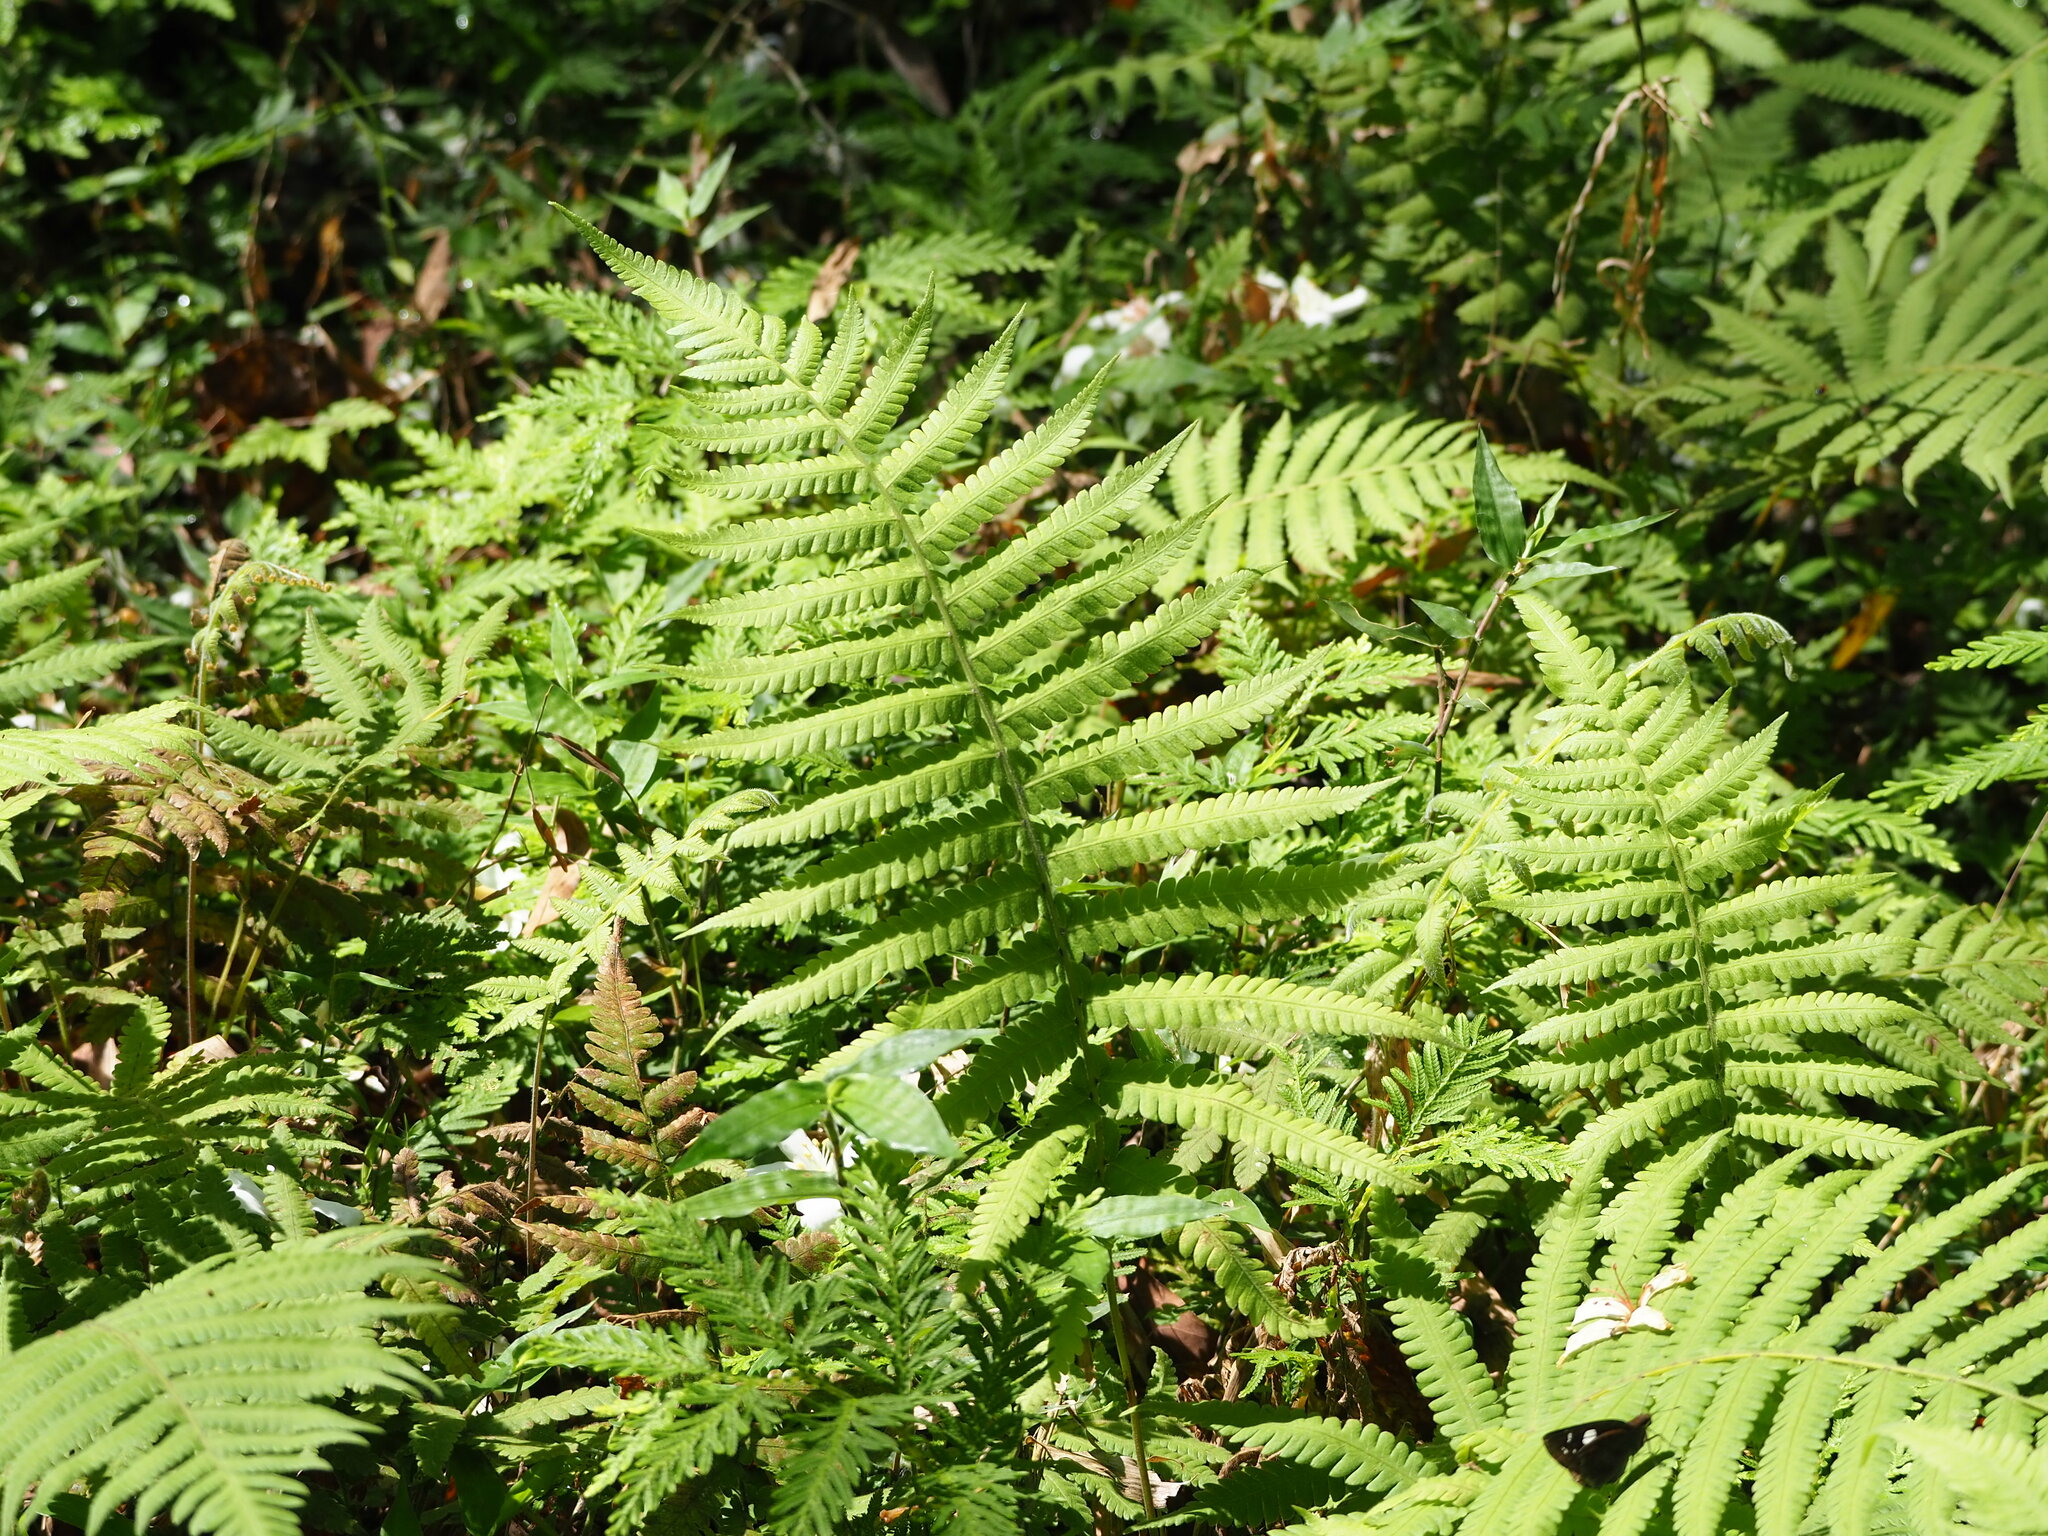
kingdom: Plantae
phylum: Tracheophyta
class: Polypodiopsida
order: Polypodiales
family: Thelypteridaceae
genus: Christella
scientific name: Christella parasitica
